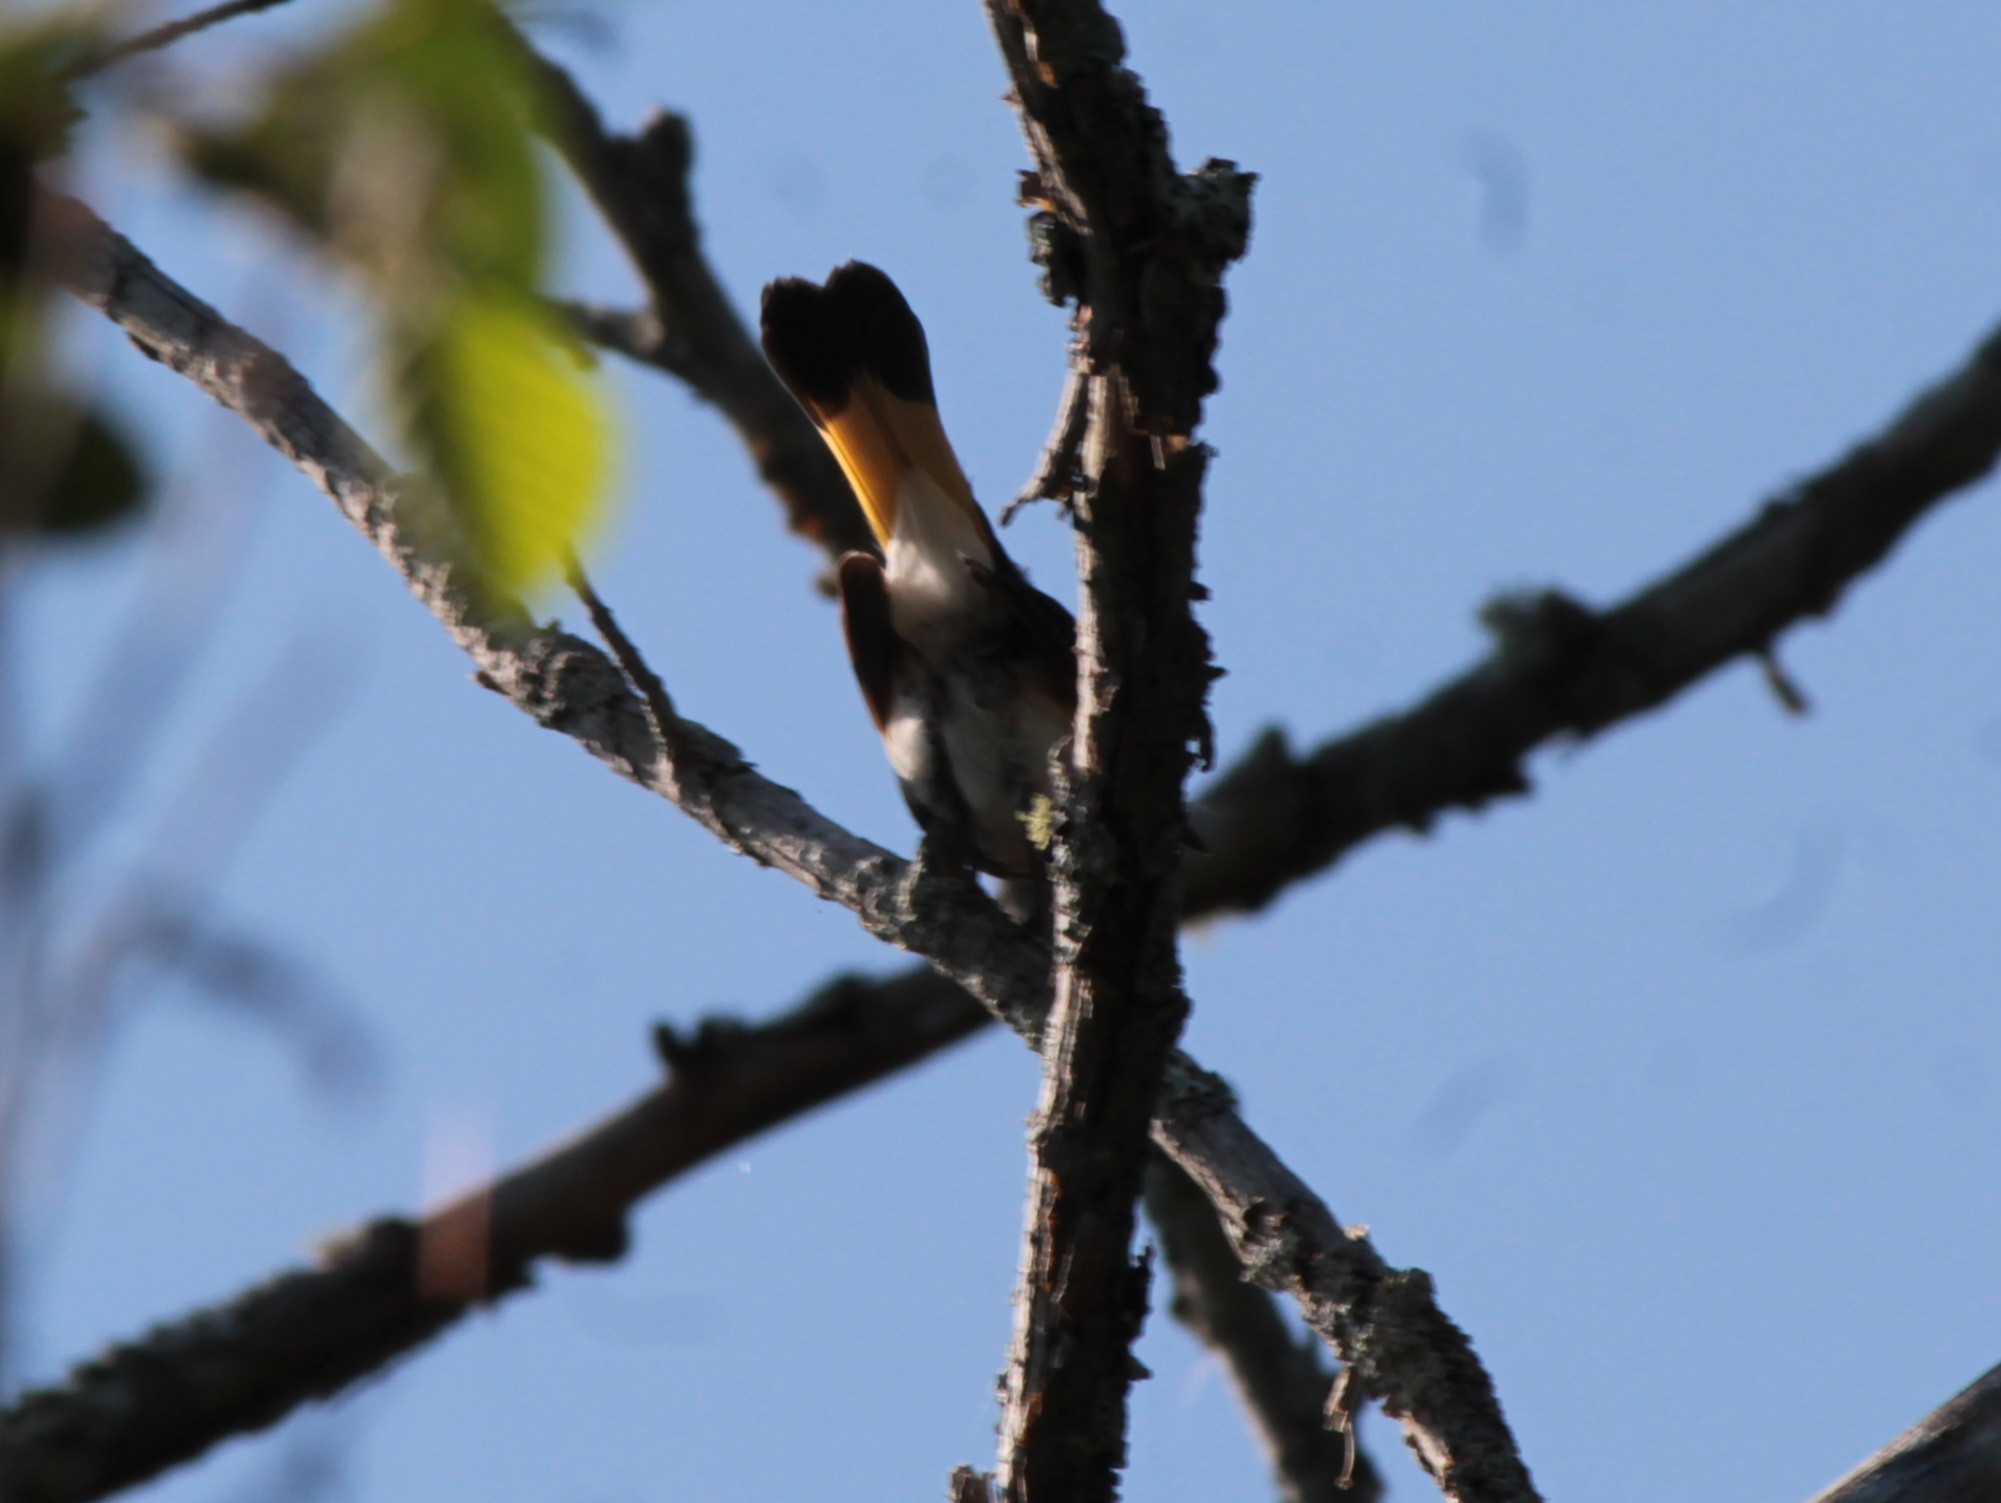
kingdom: Animalia
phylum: Chordata
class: Aves
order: Passeriformes
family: Parulidae
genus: Setophaga
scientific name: Setophaga ruticilla
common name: American redstart
